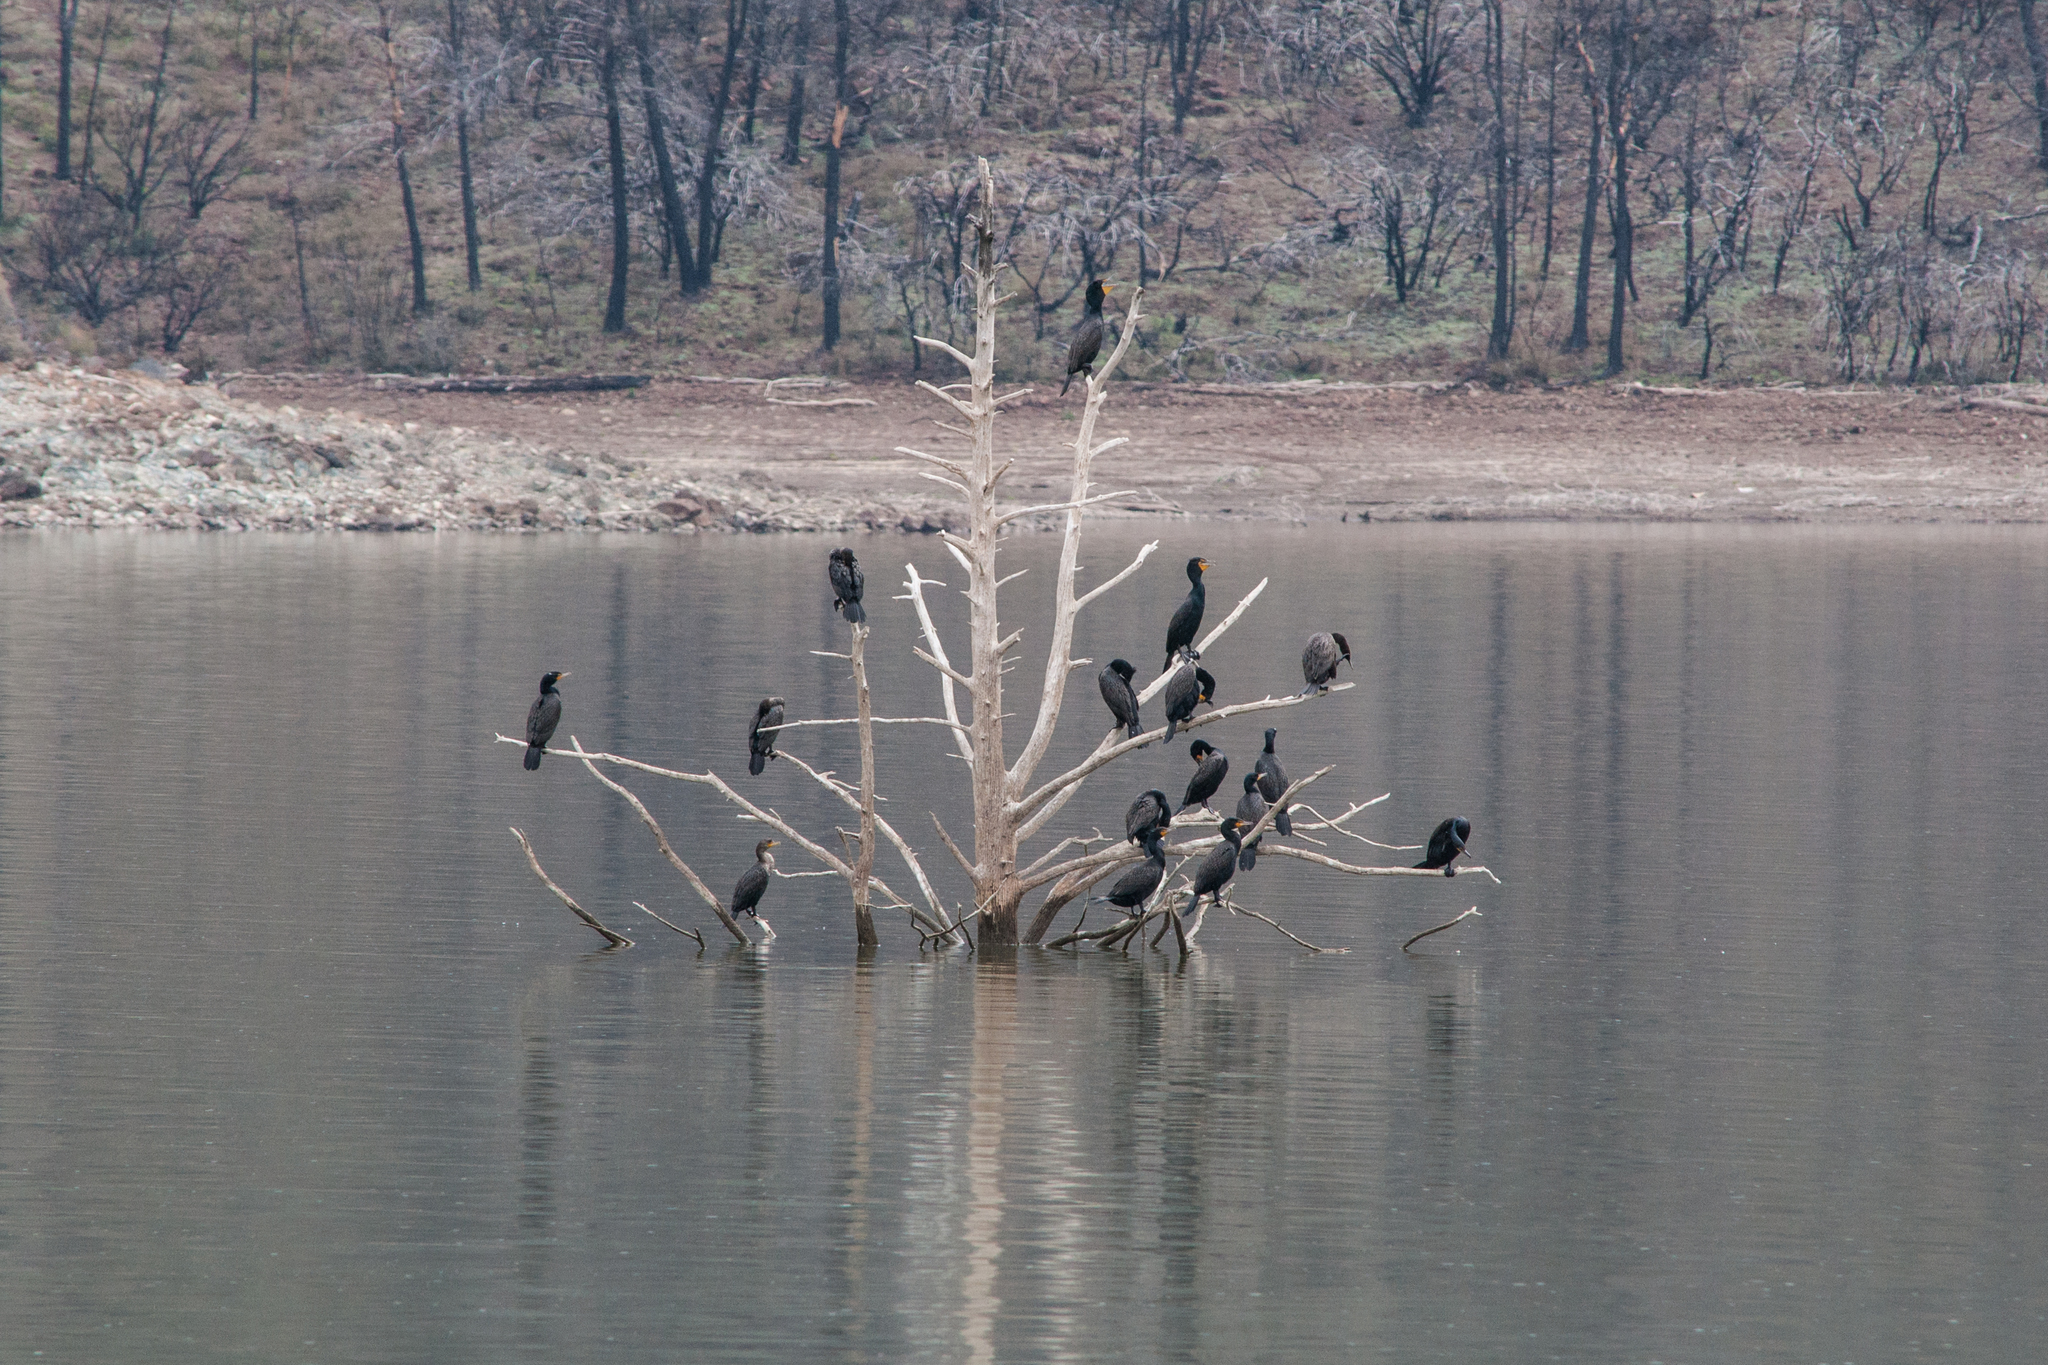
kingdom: Animalia
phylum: Chordata
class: Aves
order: Suliformes
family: Phalacrocoracidae
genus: Phalacrocorax
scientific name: Phalacrocorax auritus
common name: Double-crested cormorant
